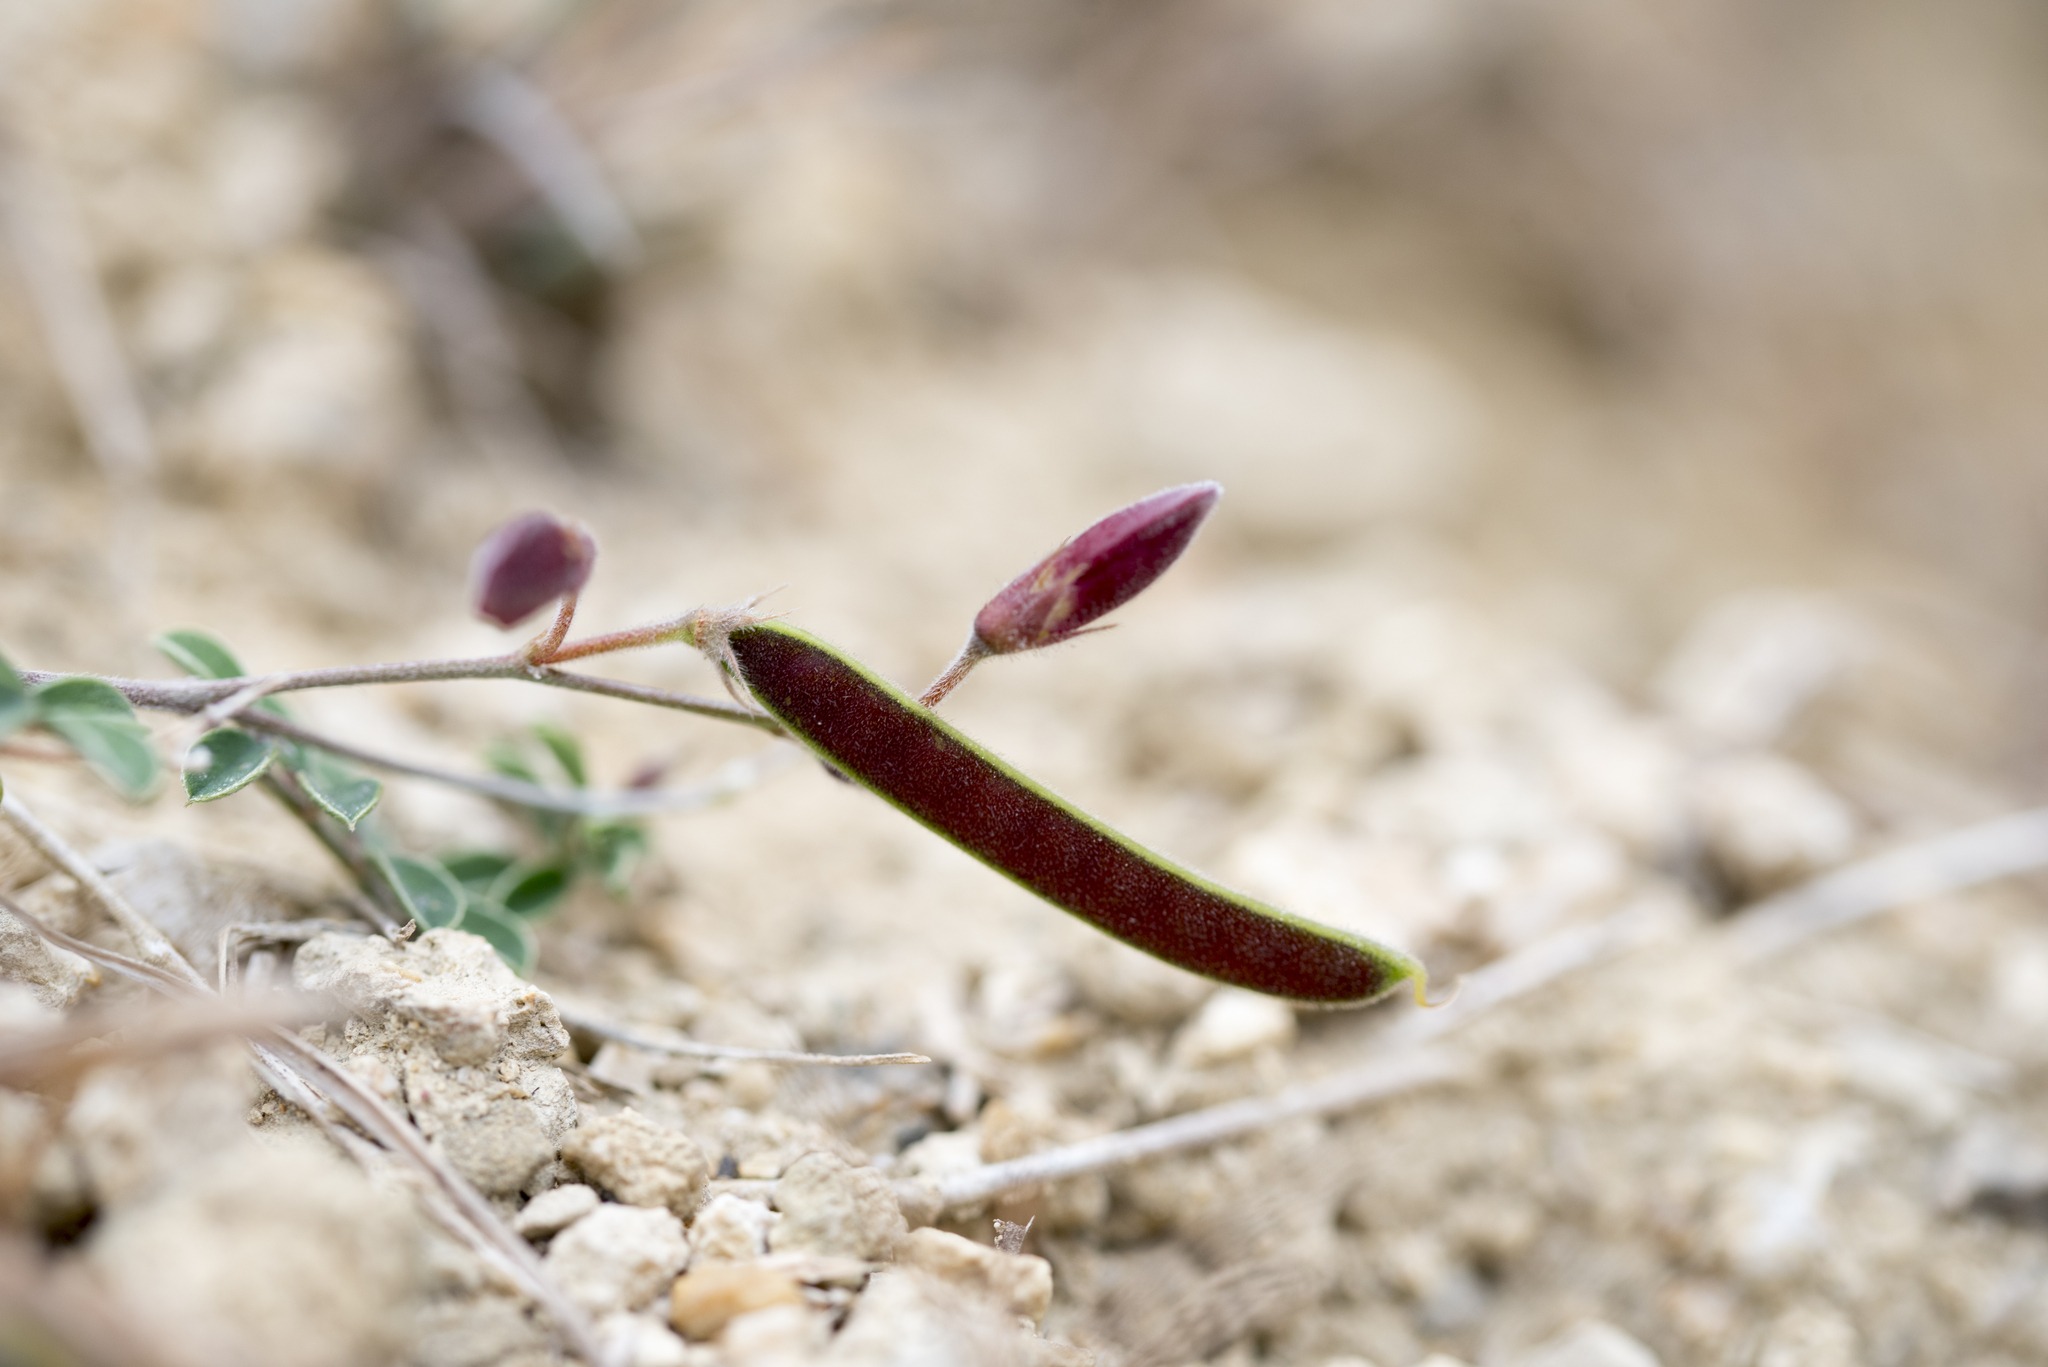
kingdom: Plantae
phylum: Tracheophyta
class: Magnoliopsida
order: Fabales
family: Fabaceae
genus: Tephrosia
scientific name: Tephrosia obovata
